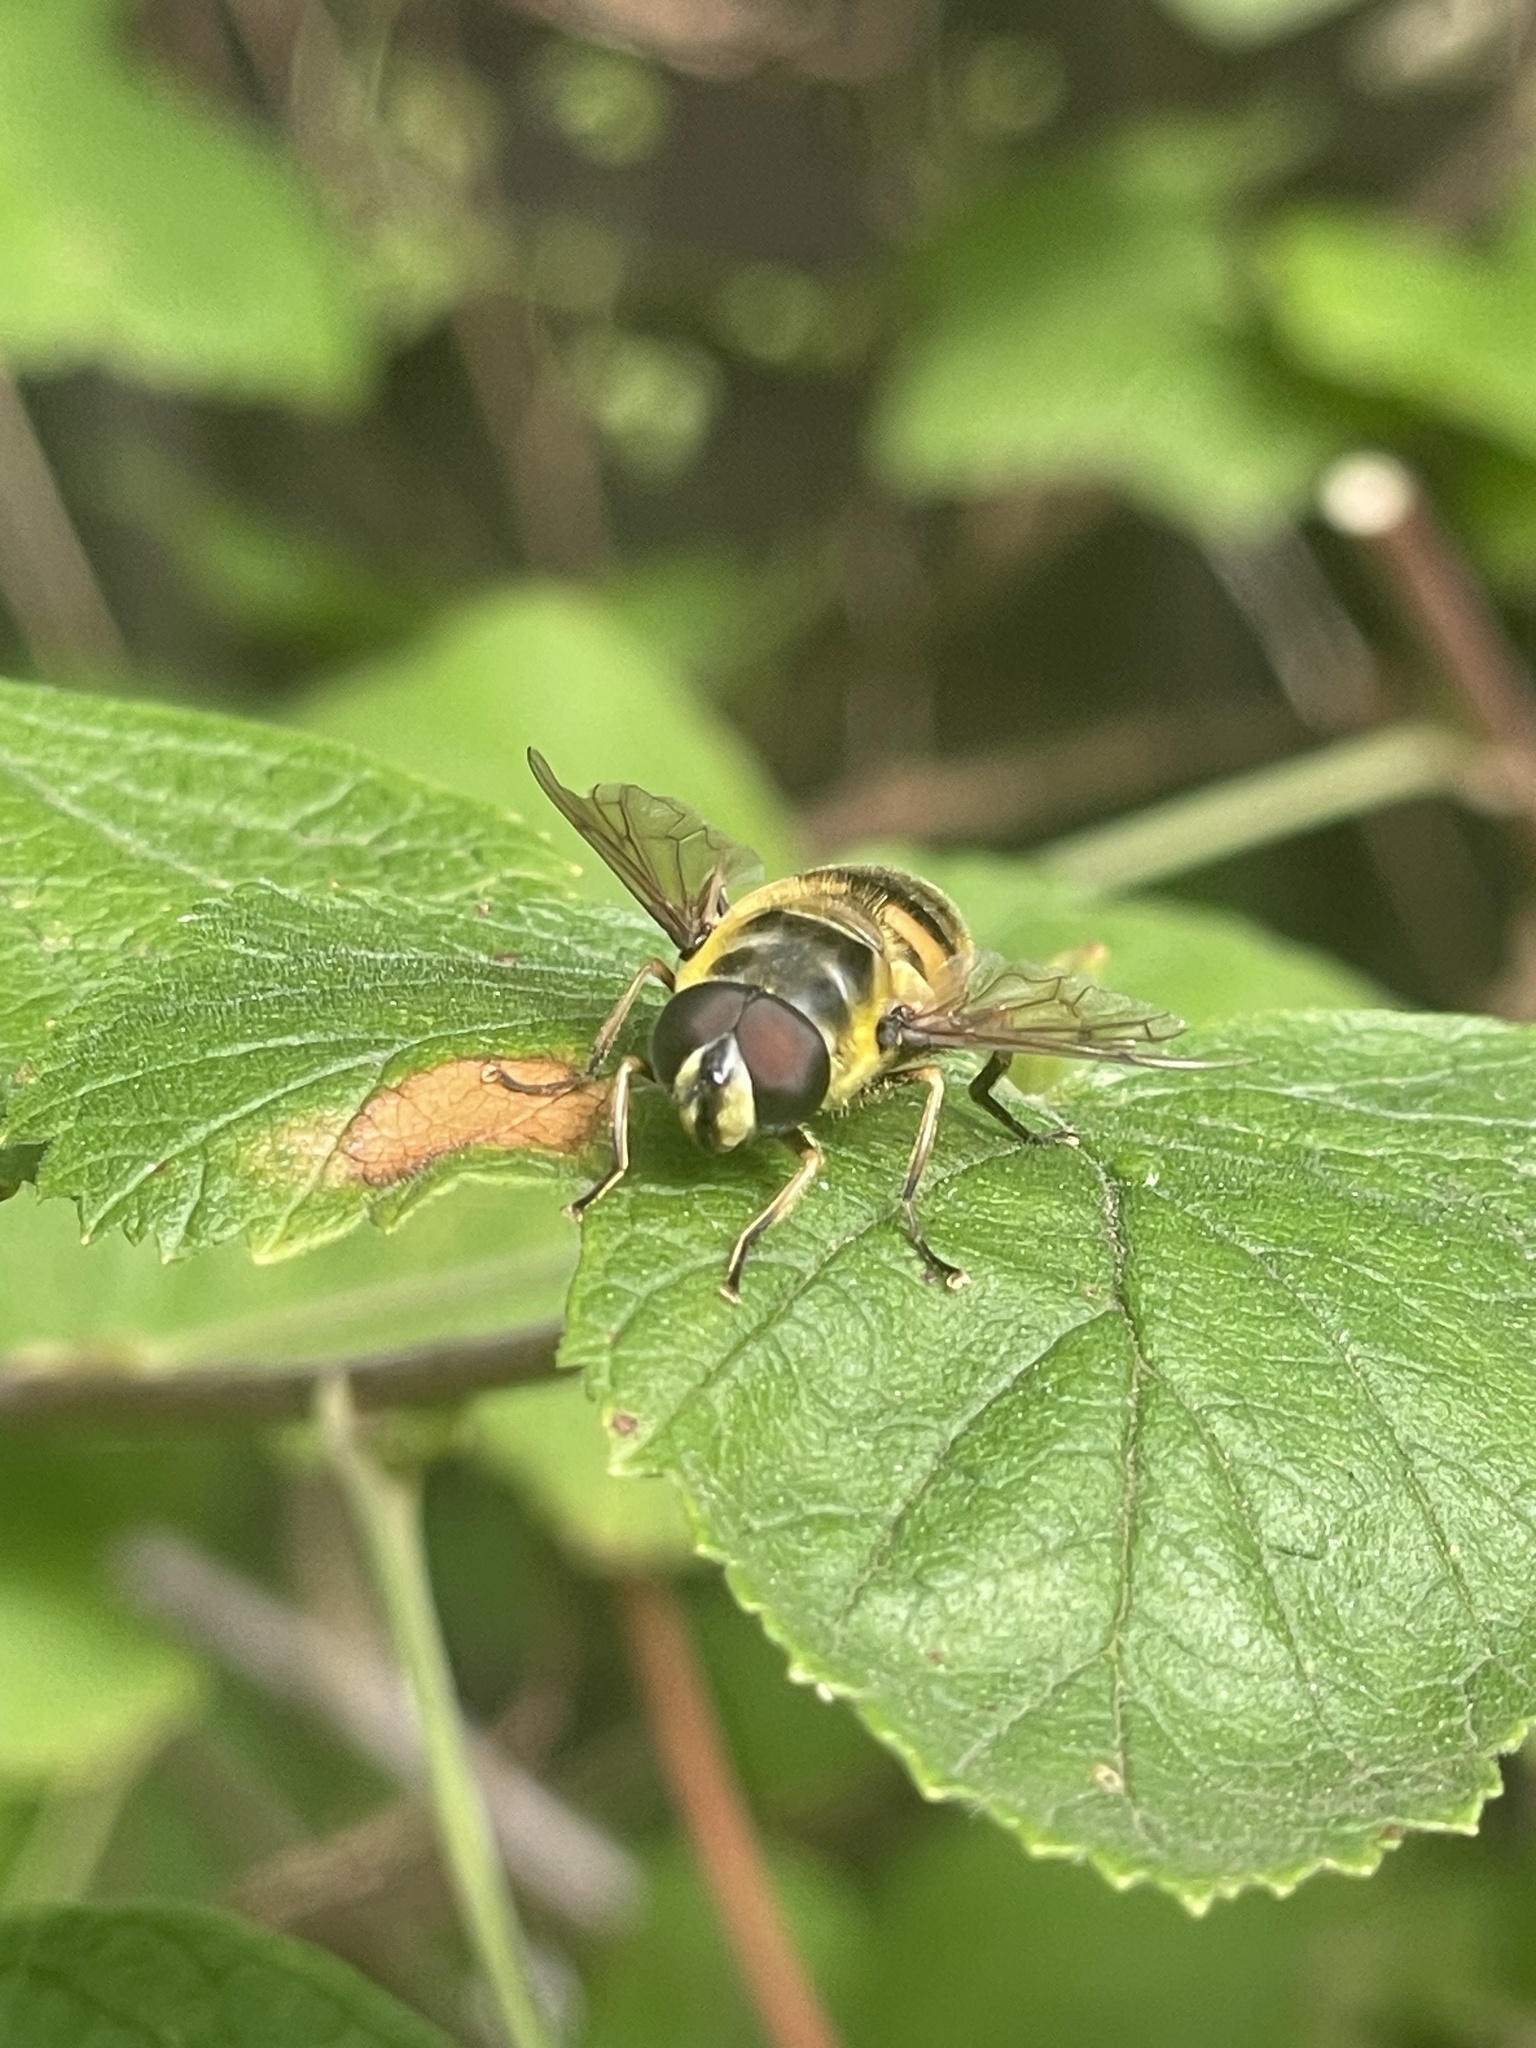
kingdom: Animalia
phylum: Arthropoda
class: Insecta
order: Diptera
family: Syrphidae
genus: Myathropa
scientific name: Myathropa florea
